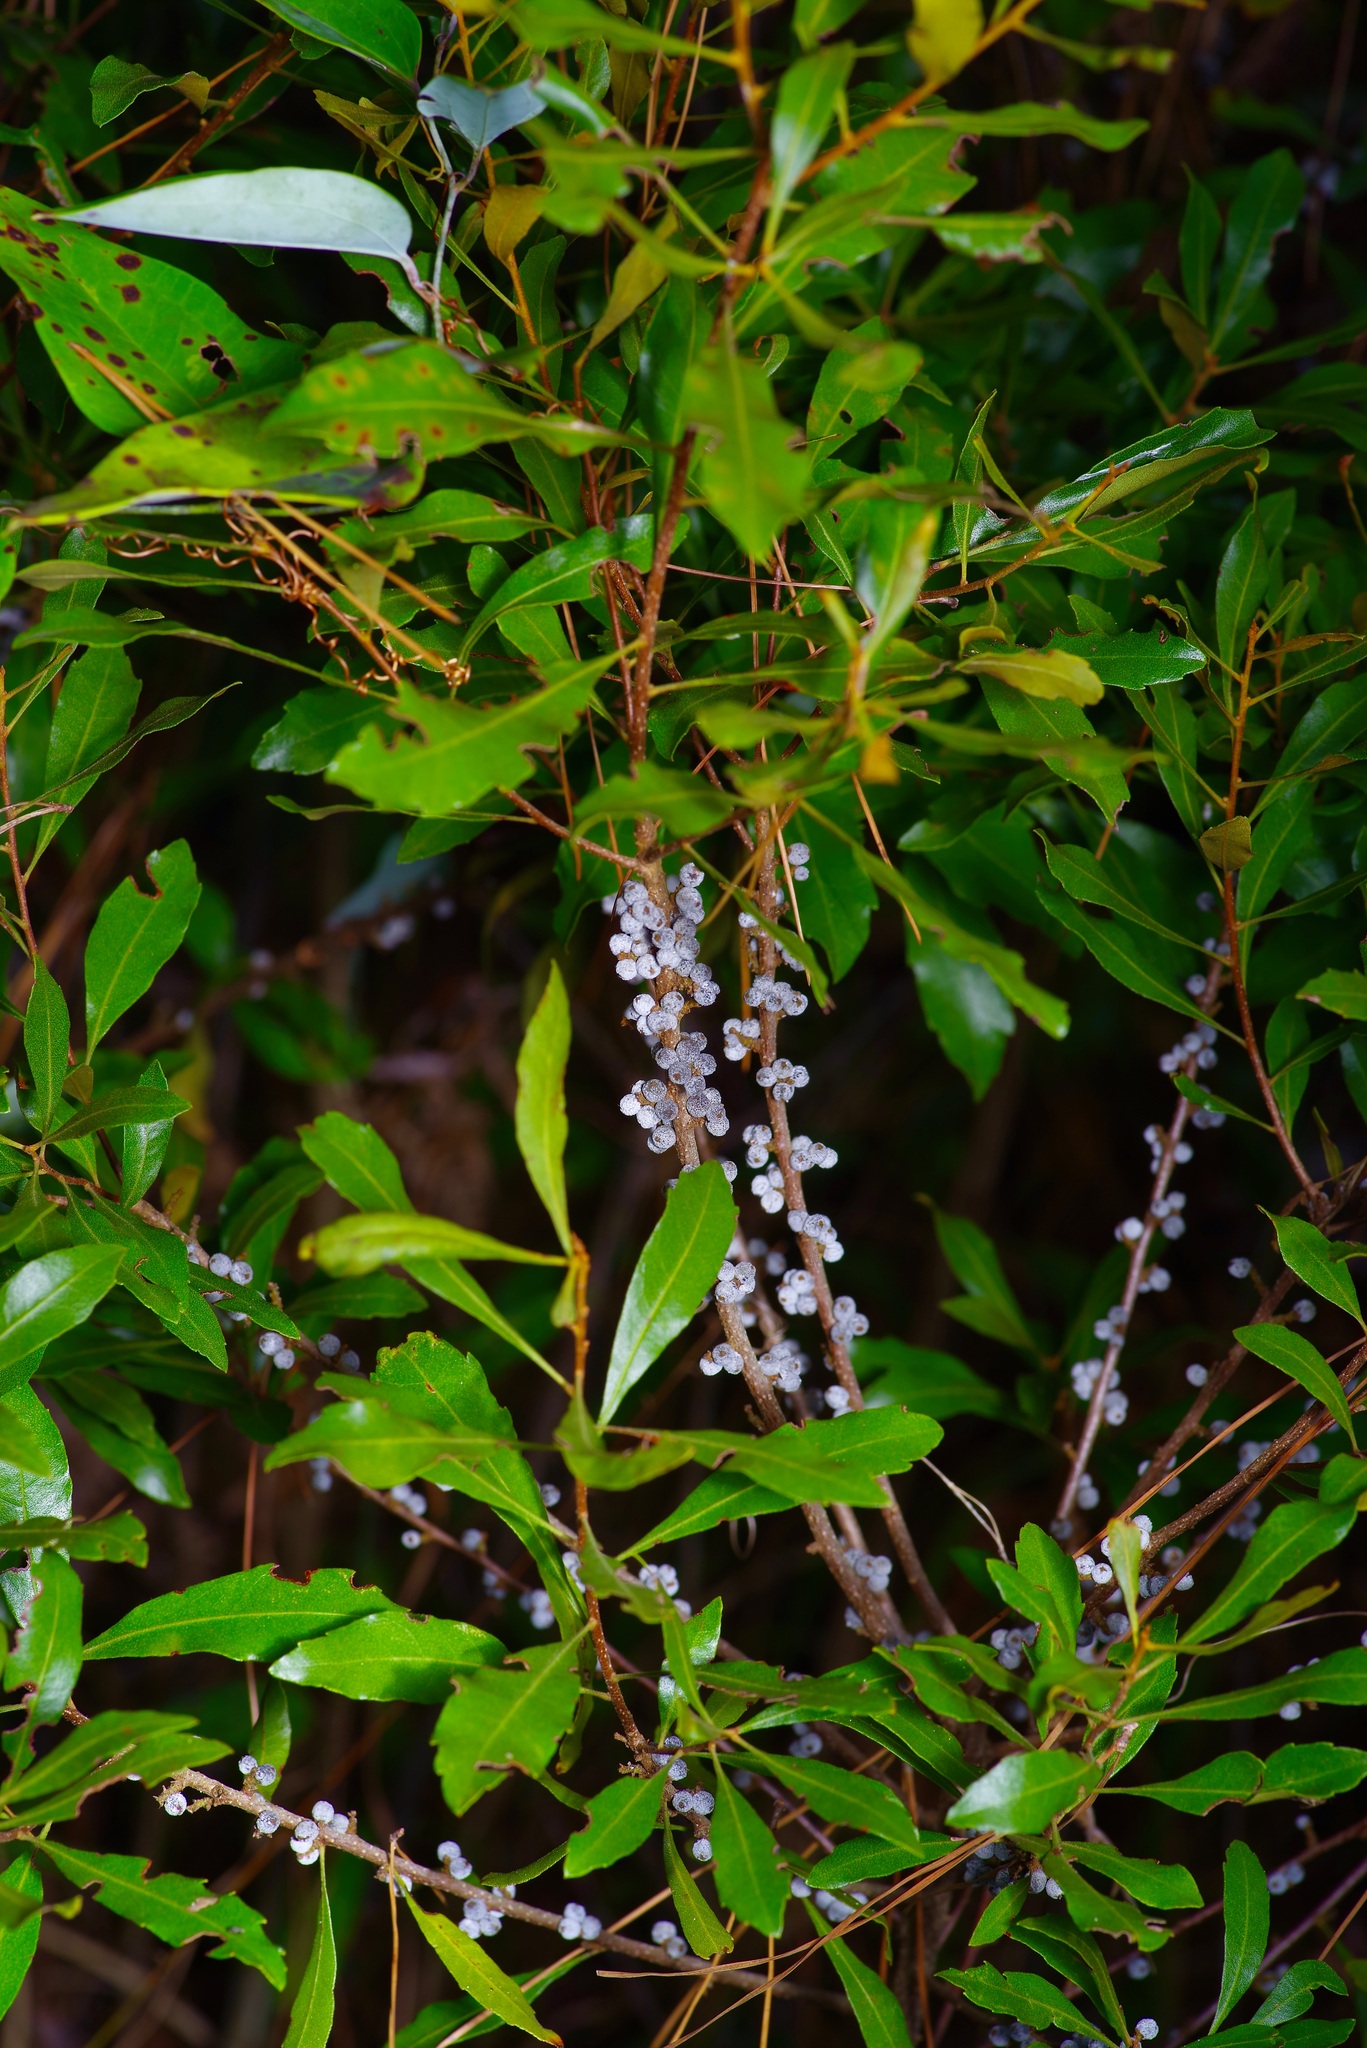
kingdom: Plantae
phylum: Tracheophyta
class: Magnoliopsida
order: Fagales
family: Myricaceae
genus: Morella
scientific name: Morella cerifera
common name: Wax myrtle
